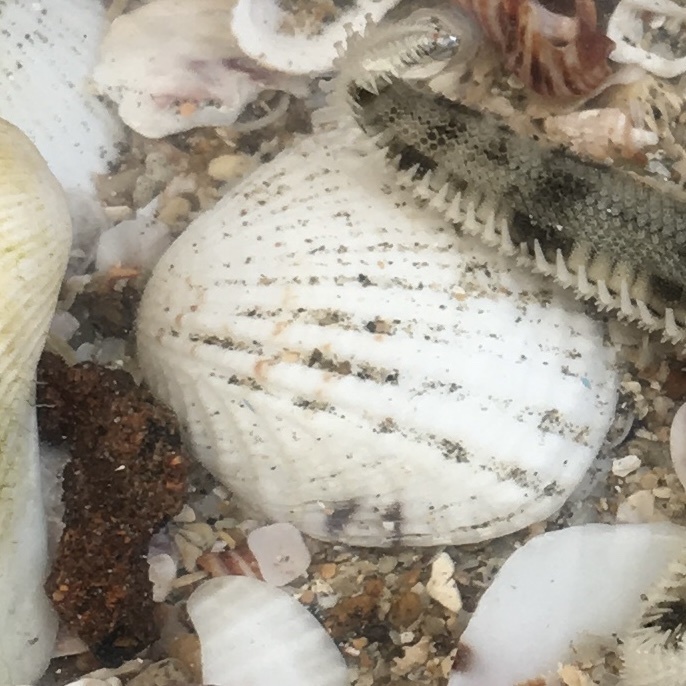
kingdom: Animalia
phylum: Mollusca
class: Bivalvia
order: Venerida
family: Veneridae
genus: Gafrarium
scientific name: Gafrarium pectinatum
